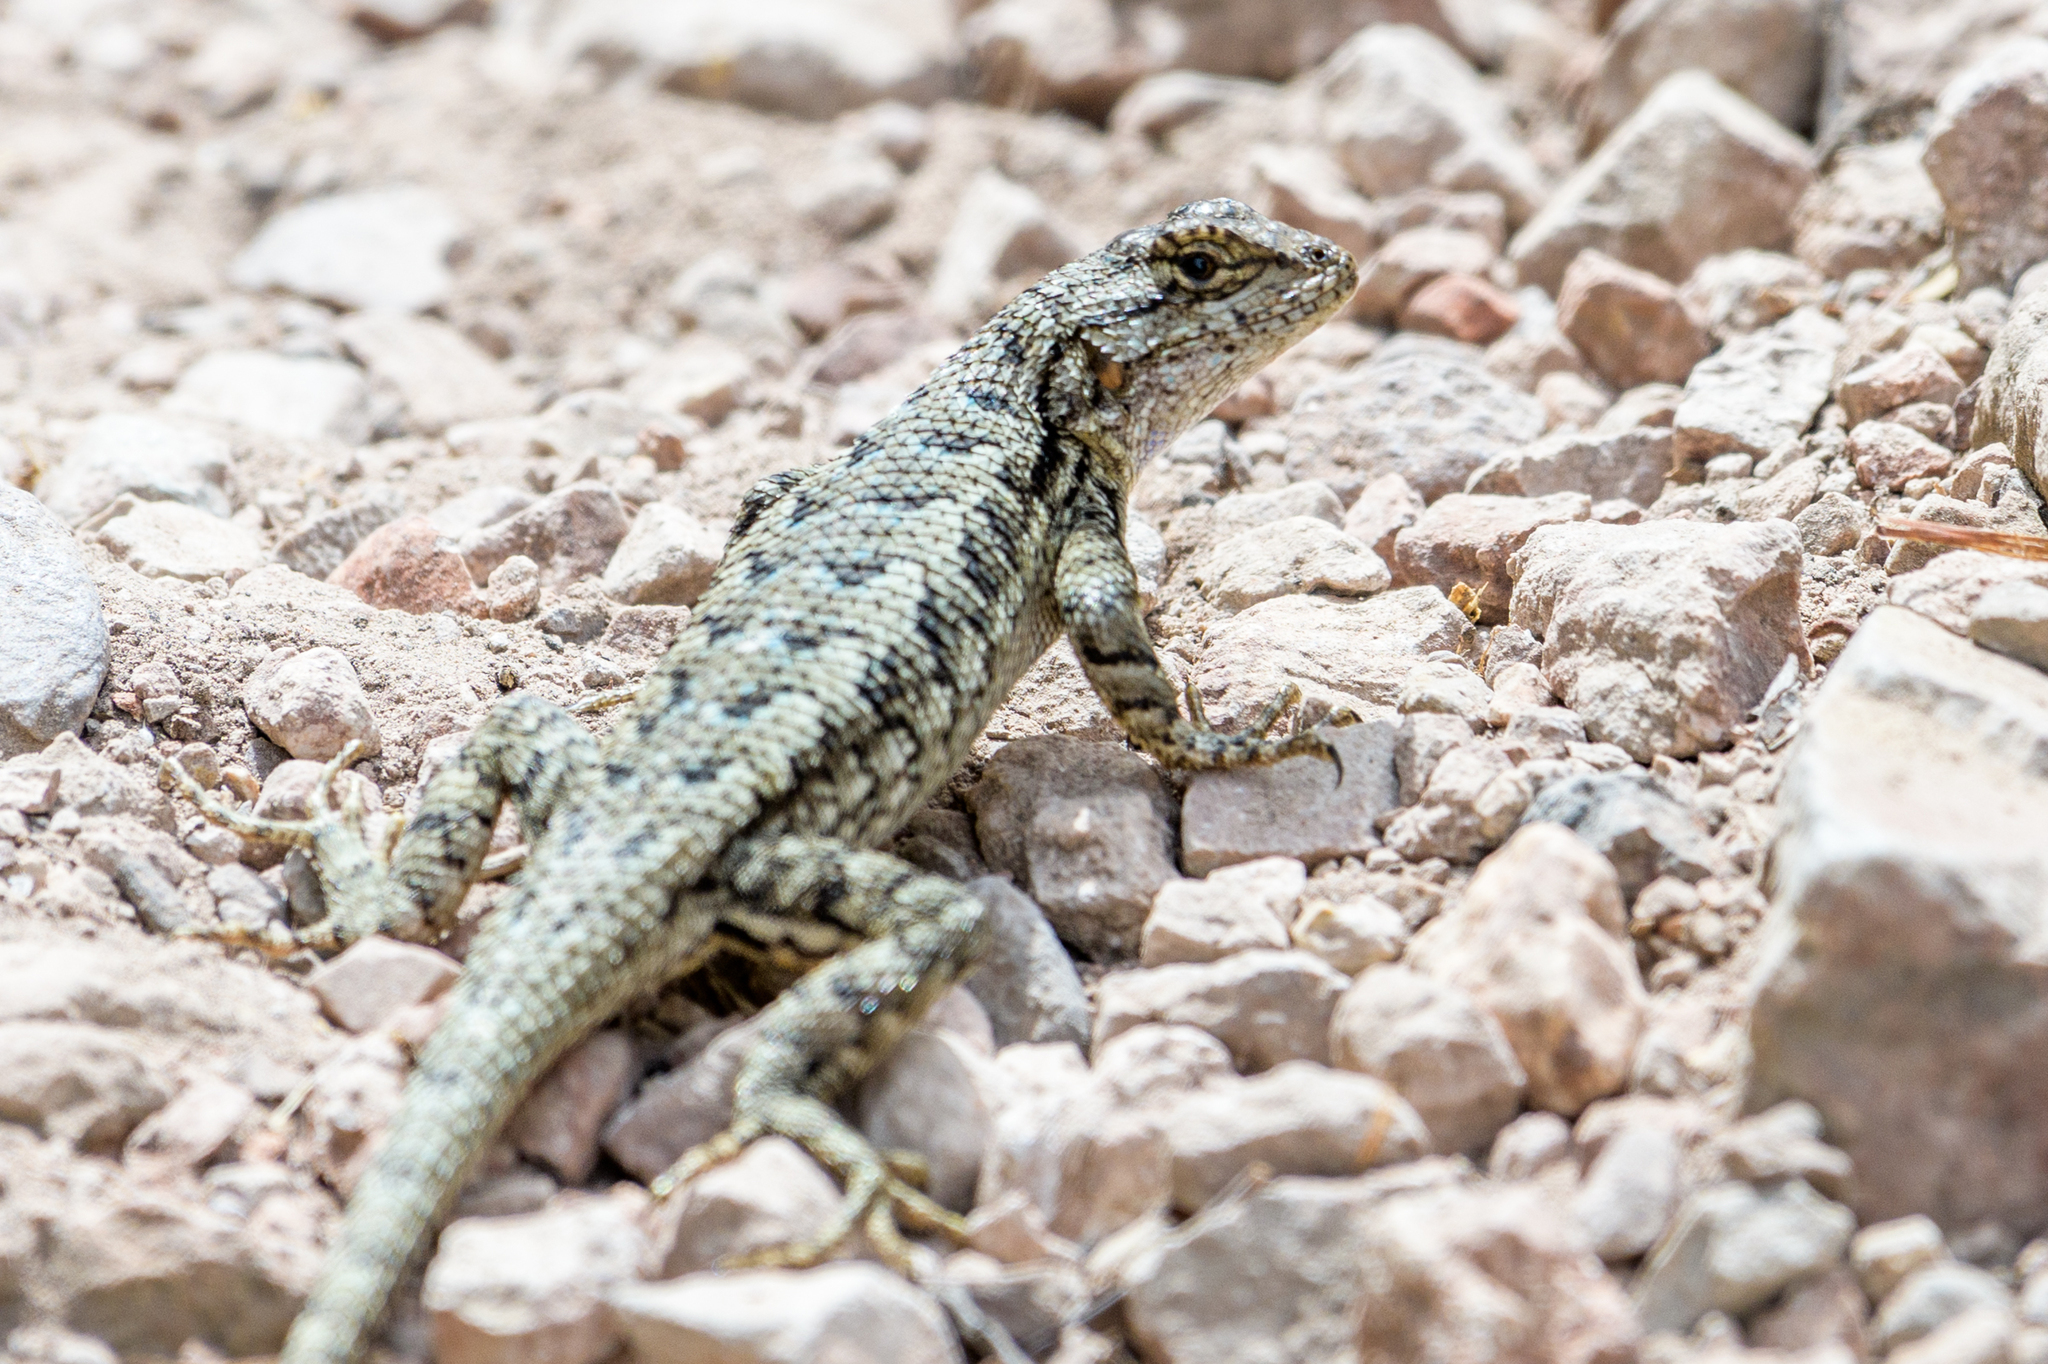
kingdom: Animalia
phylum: Chordata
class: Squamata
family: Phrynosomatidae
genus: Sceloporus
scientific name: Sceloporus occidentalis
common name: Western fence lizard
